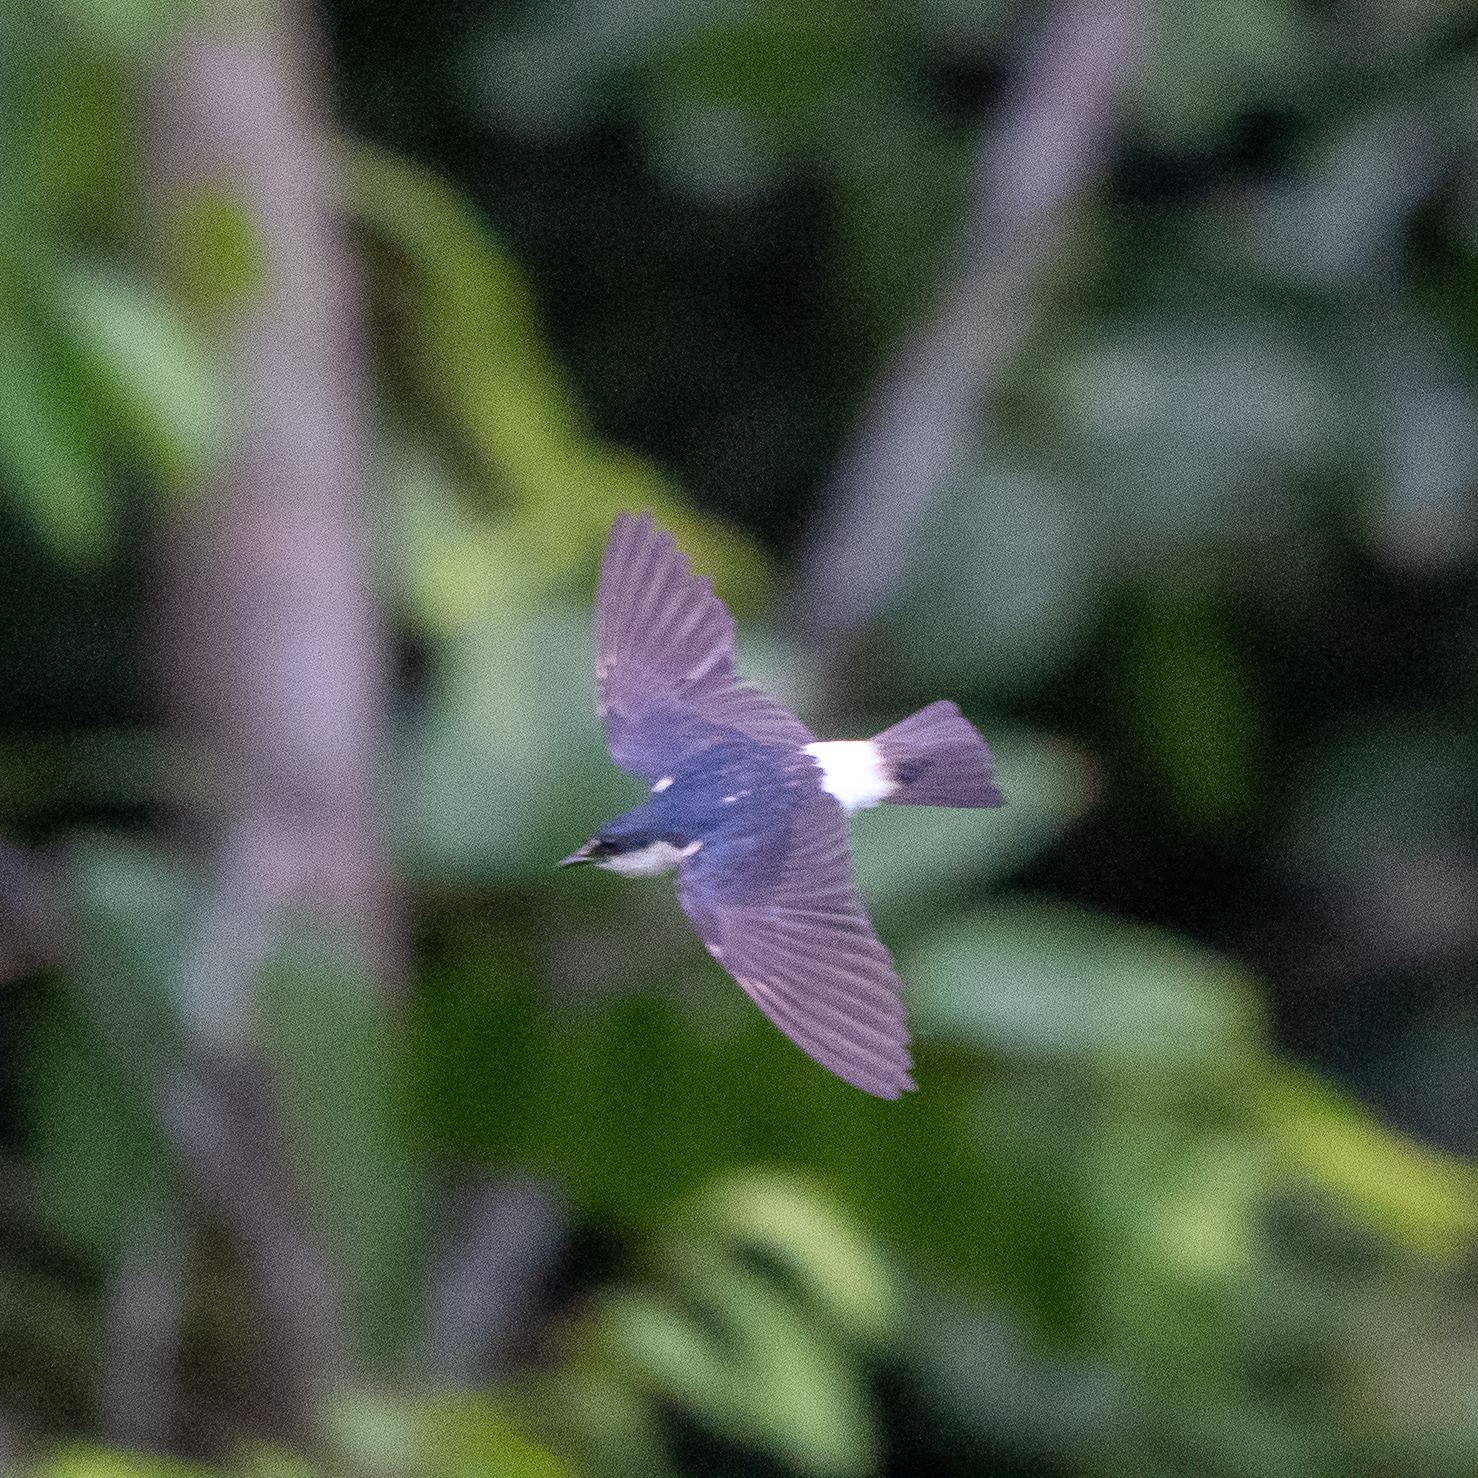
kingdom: Animalia
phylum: Chordata
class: Aves
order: Passeriformes
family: Hirundinidae
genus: Tachycineta
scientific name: Tachycineta albilinea
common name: Mangrove swallow
